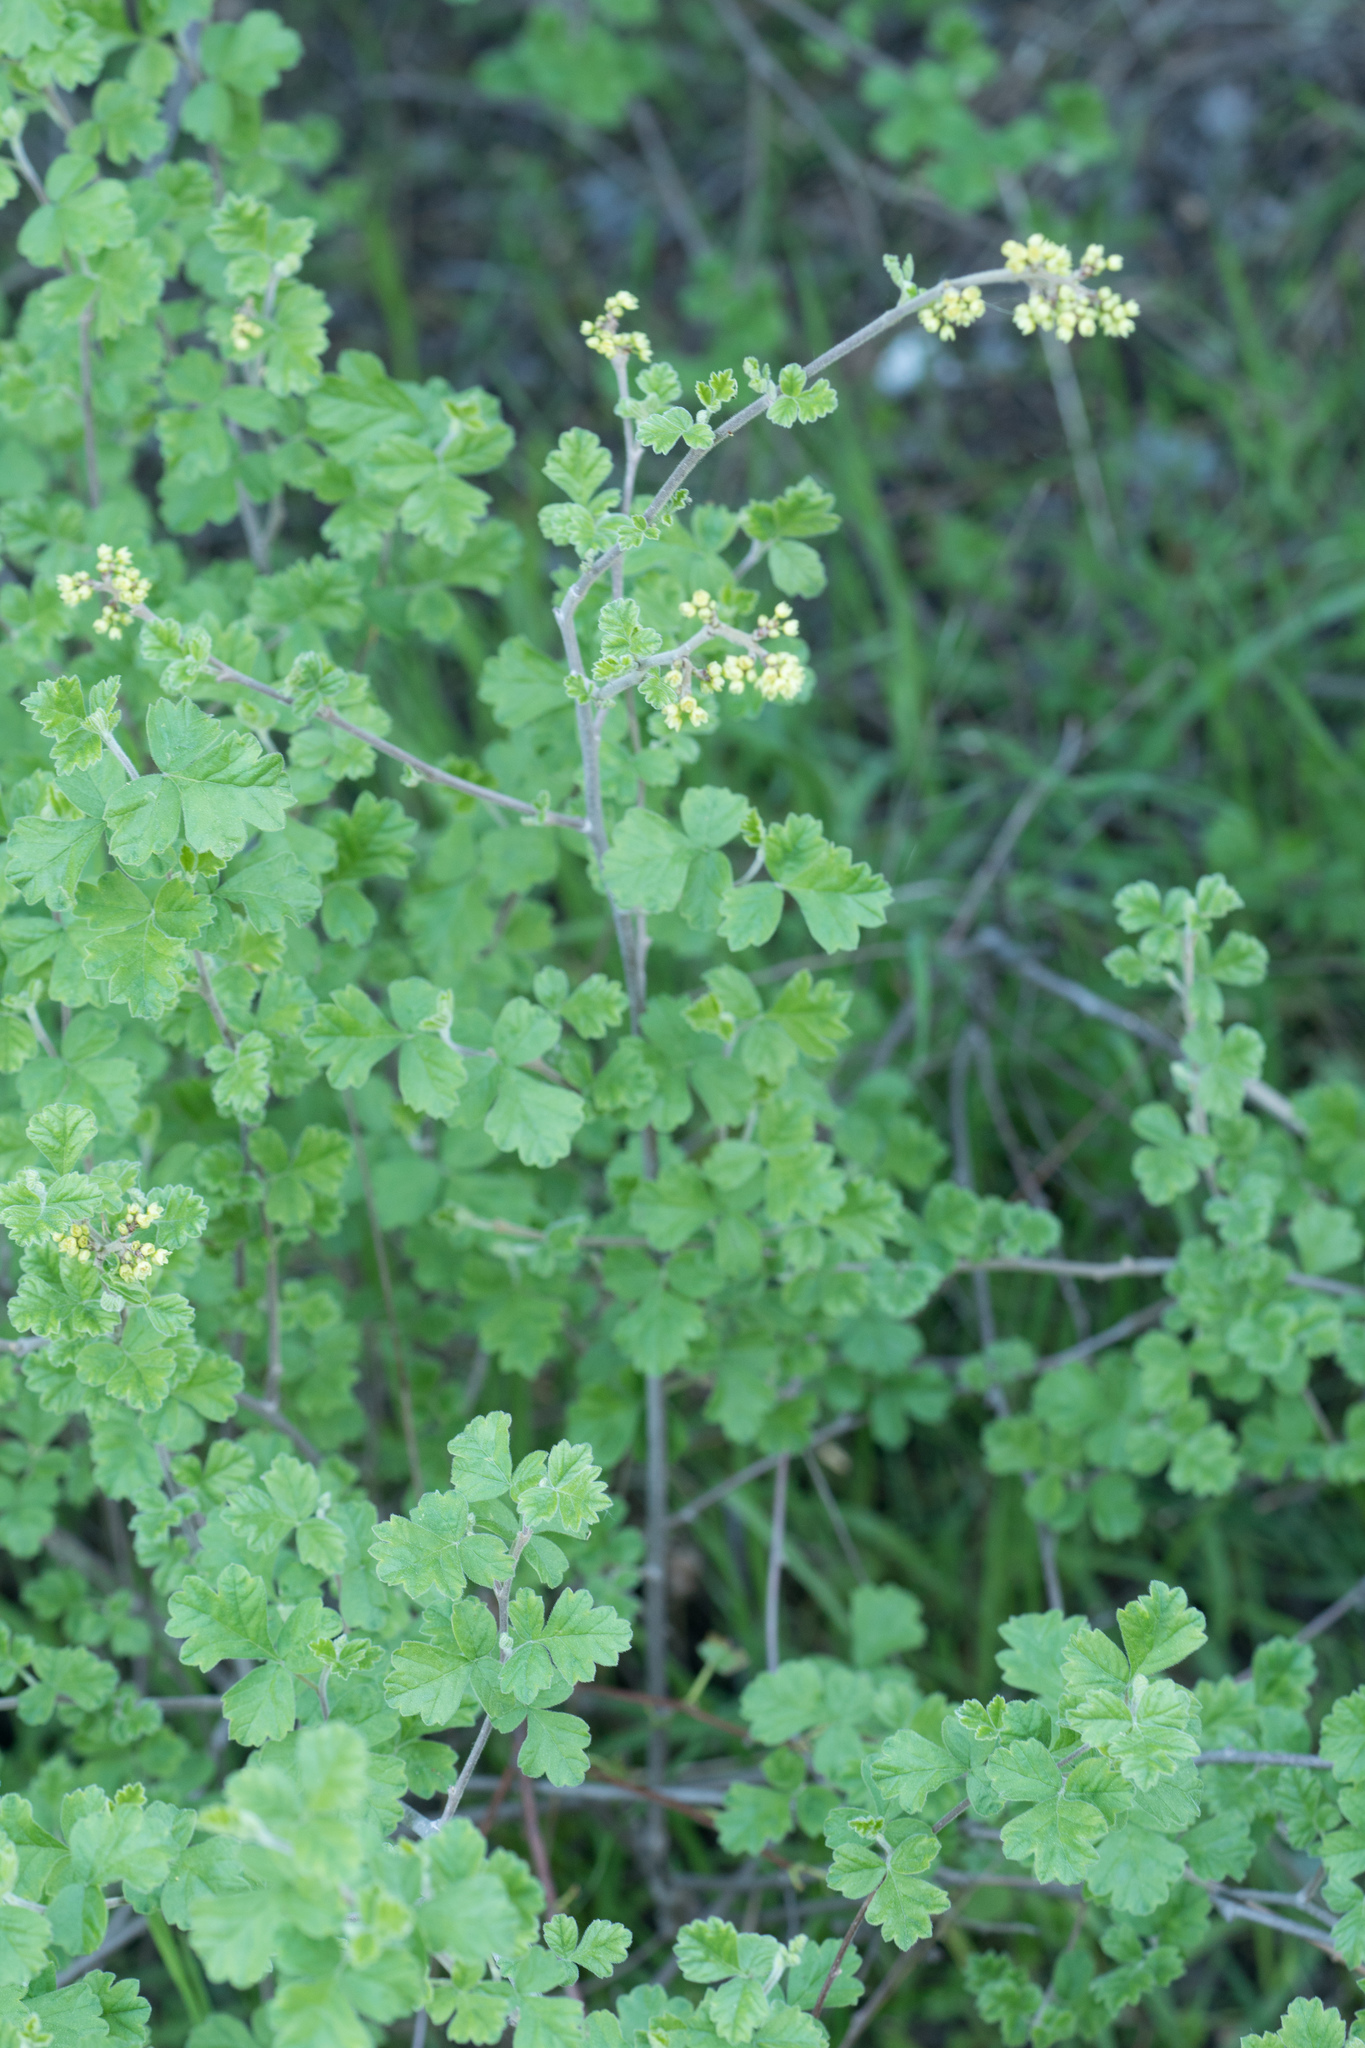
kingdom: Plantae
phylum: Tracheophyta
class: Magnoliopsida
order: Sapindales
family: Anacardiaceae
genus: Rhus
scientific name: Rhus aromatica
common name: Aromatic sumac
